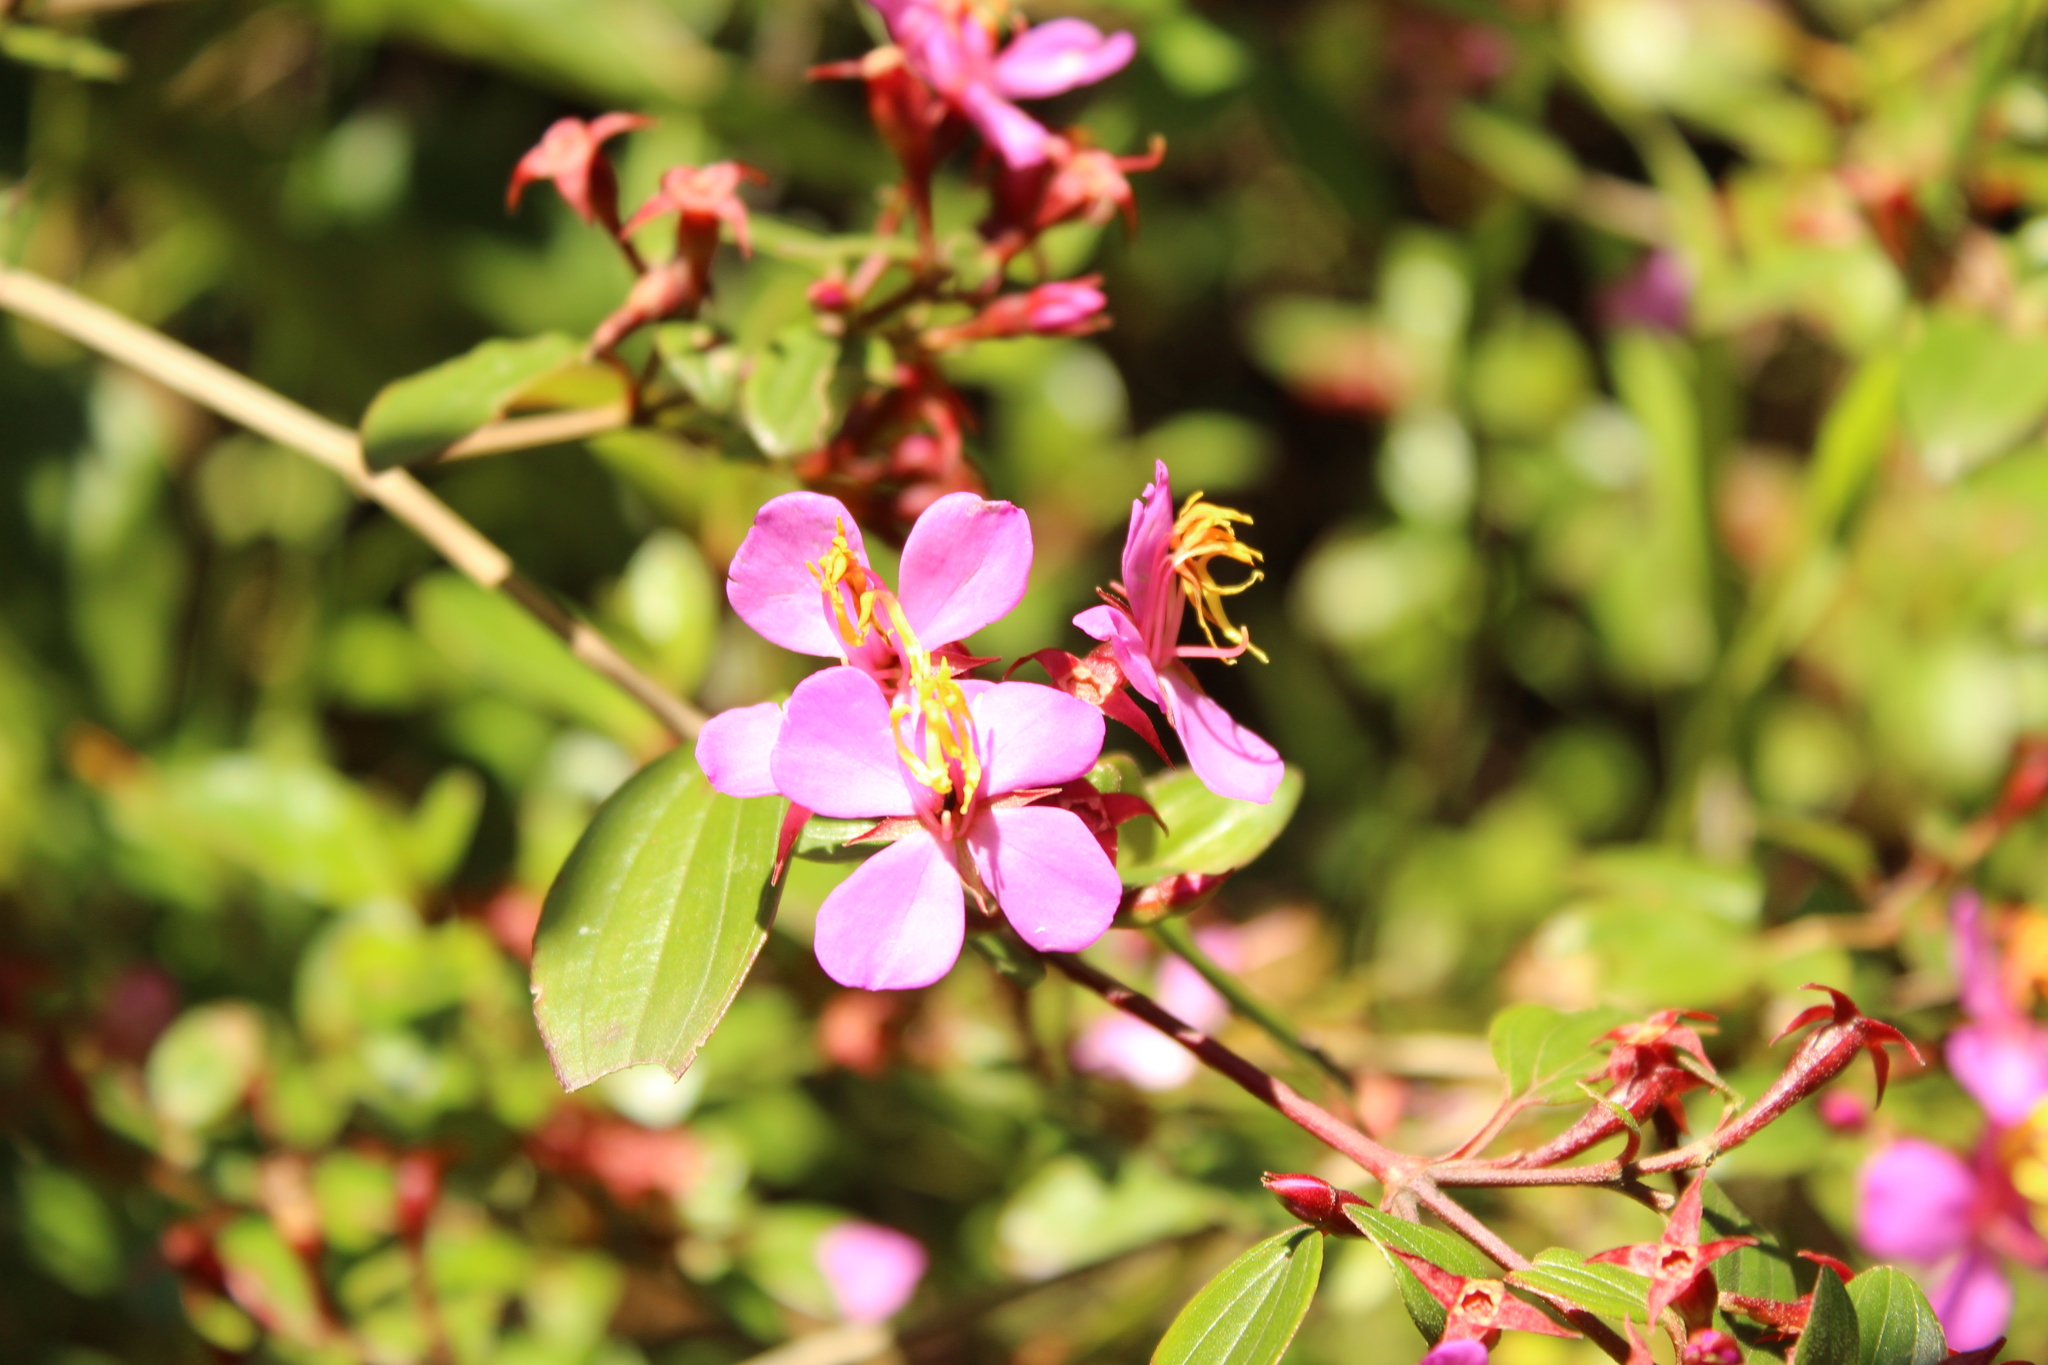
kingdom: Plantae
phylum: Tracheophyta
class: Magnoliopsida
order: Myrtales
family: Melastomataceae
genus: Monochaetum
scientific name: Monochaetum myrtoideum
